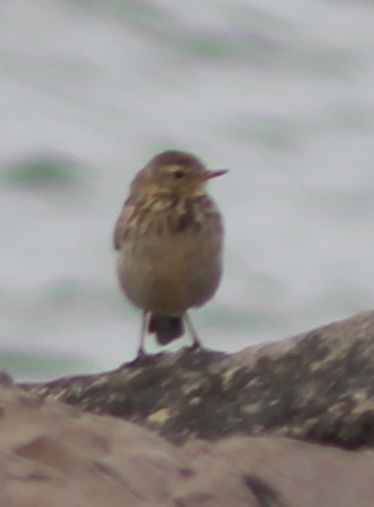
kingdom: Animalia
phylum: Chordata
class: Aves
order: Passeriformes
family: Motacillidae
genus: Anthus
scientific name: Anthus rubescens
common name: Buff-bellied pipit
